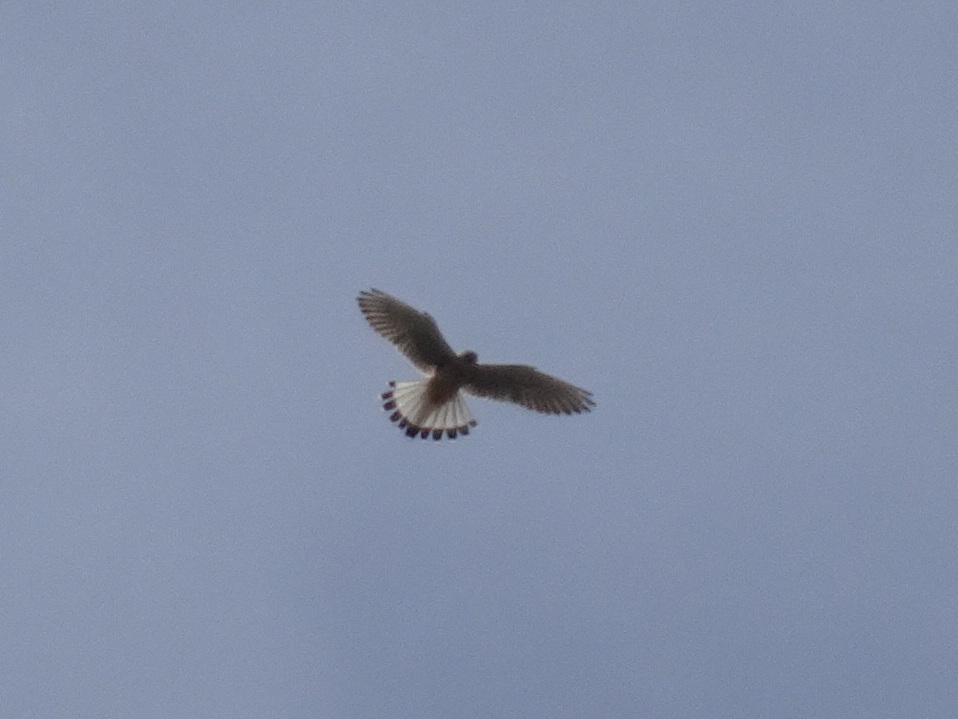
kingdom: Animalia
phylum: Chordata
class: Aves
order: Falconiformes
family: Falconidae
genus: Falco
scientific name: Falco tinnunculus
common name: Common kestrel
